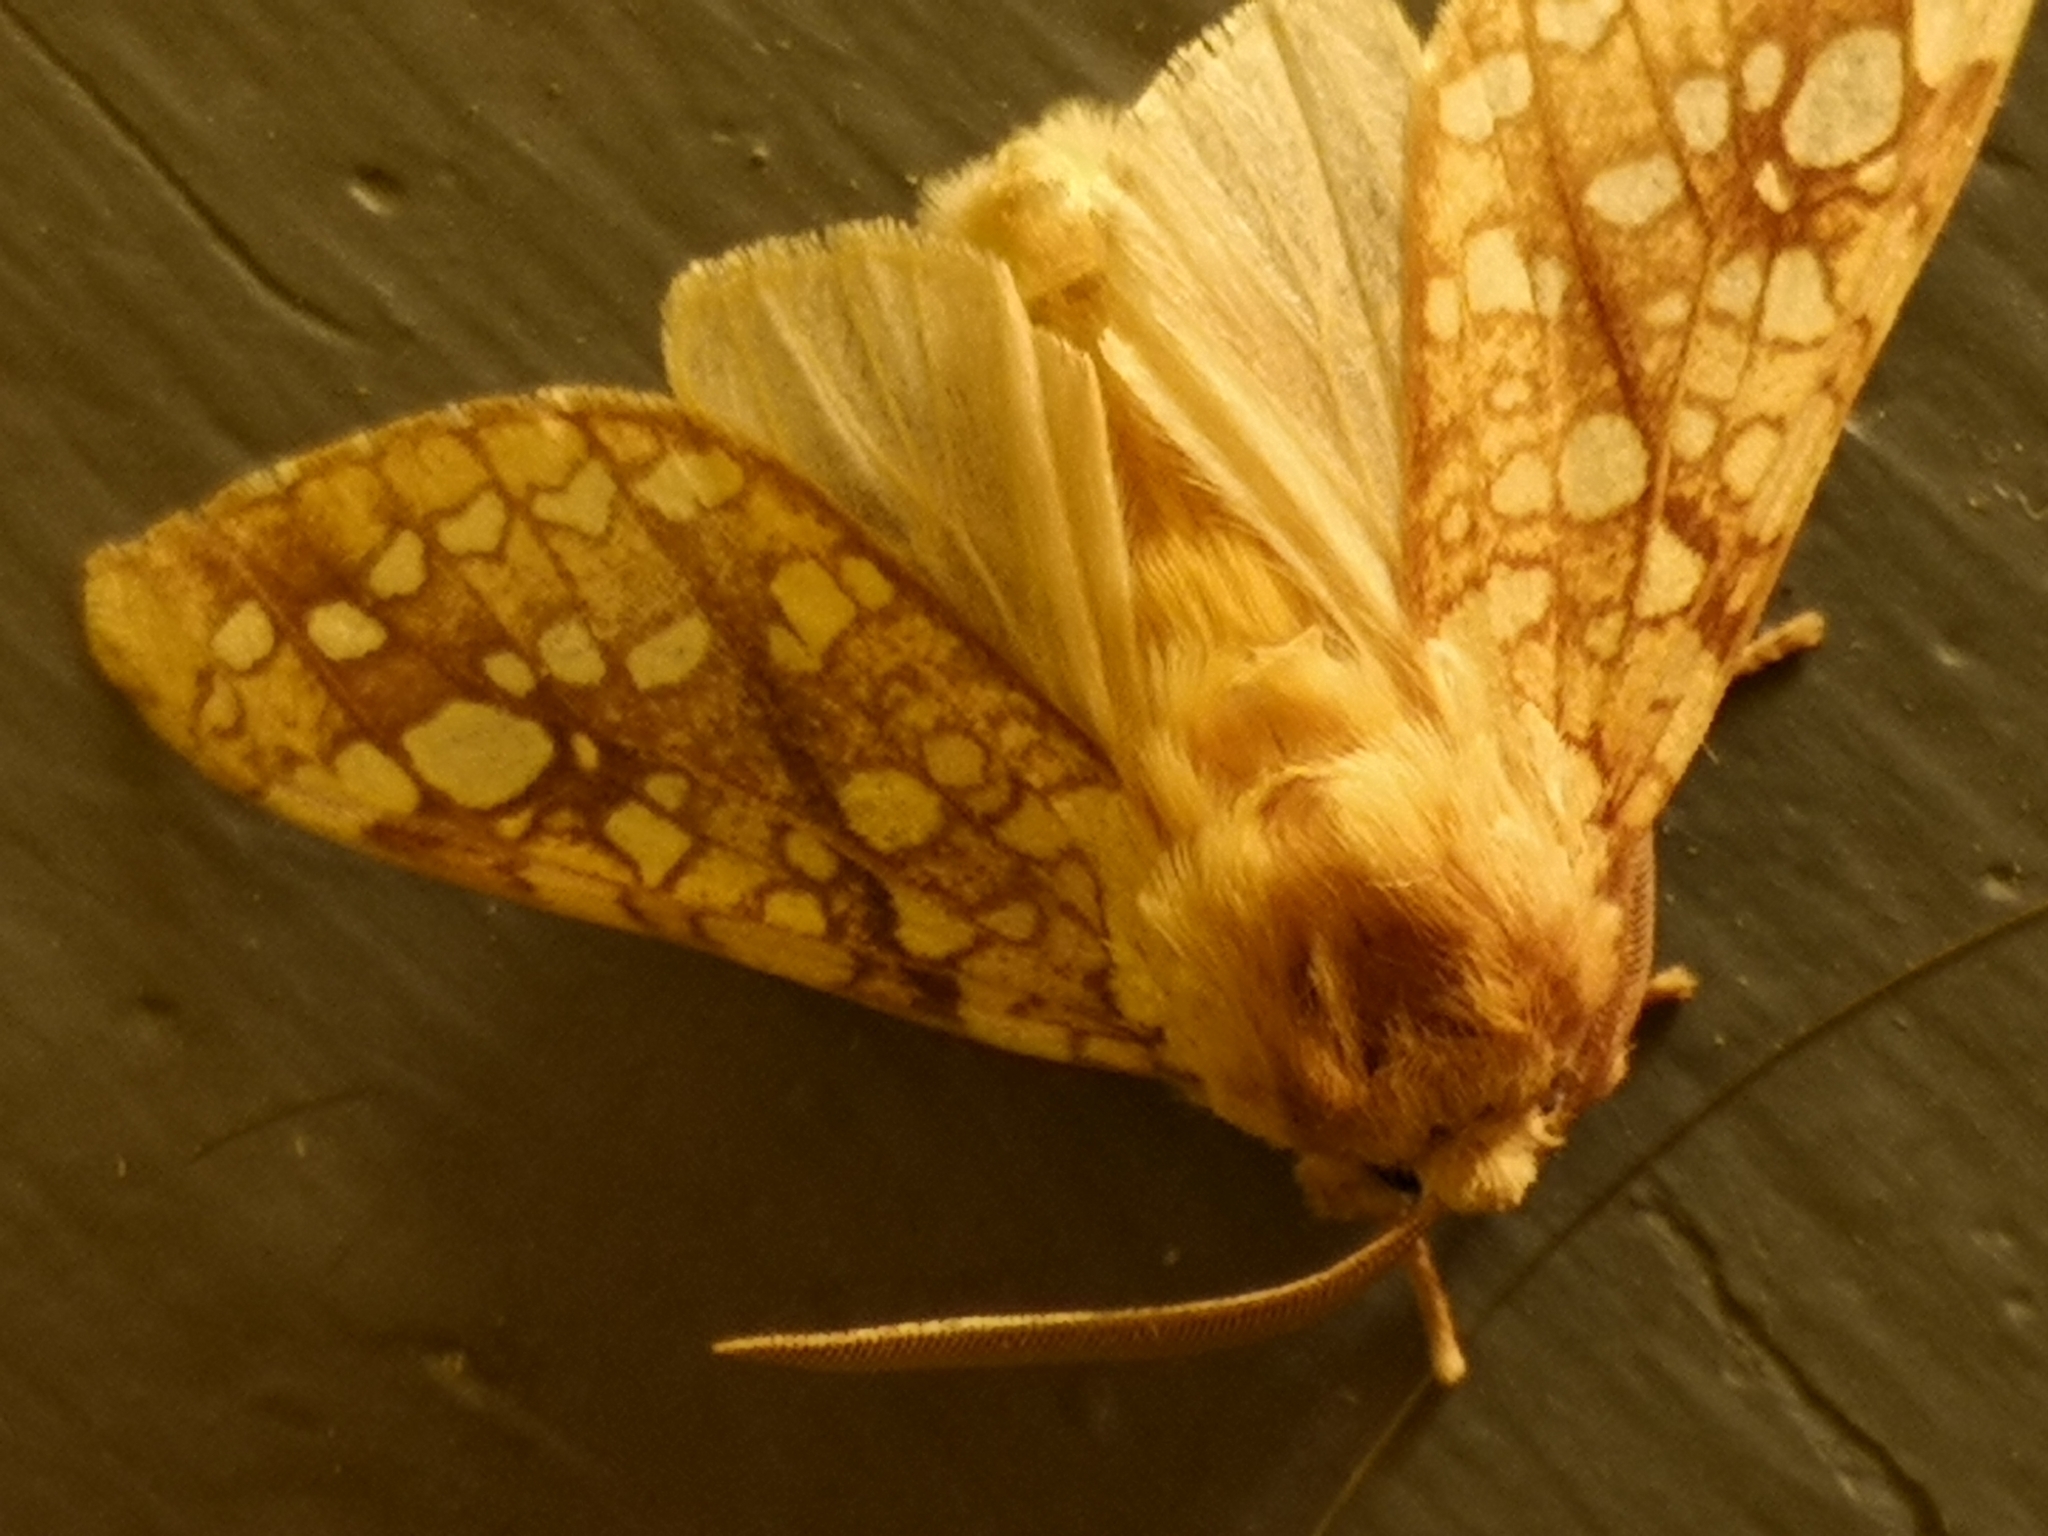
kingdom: Animalia
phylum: Arthropoda
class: Insecta
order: Lepidoptera
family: Erebidae
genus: Lophocampa
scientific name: Lophocampa caryae
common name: Hickory tussock moth
